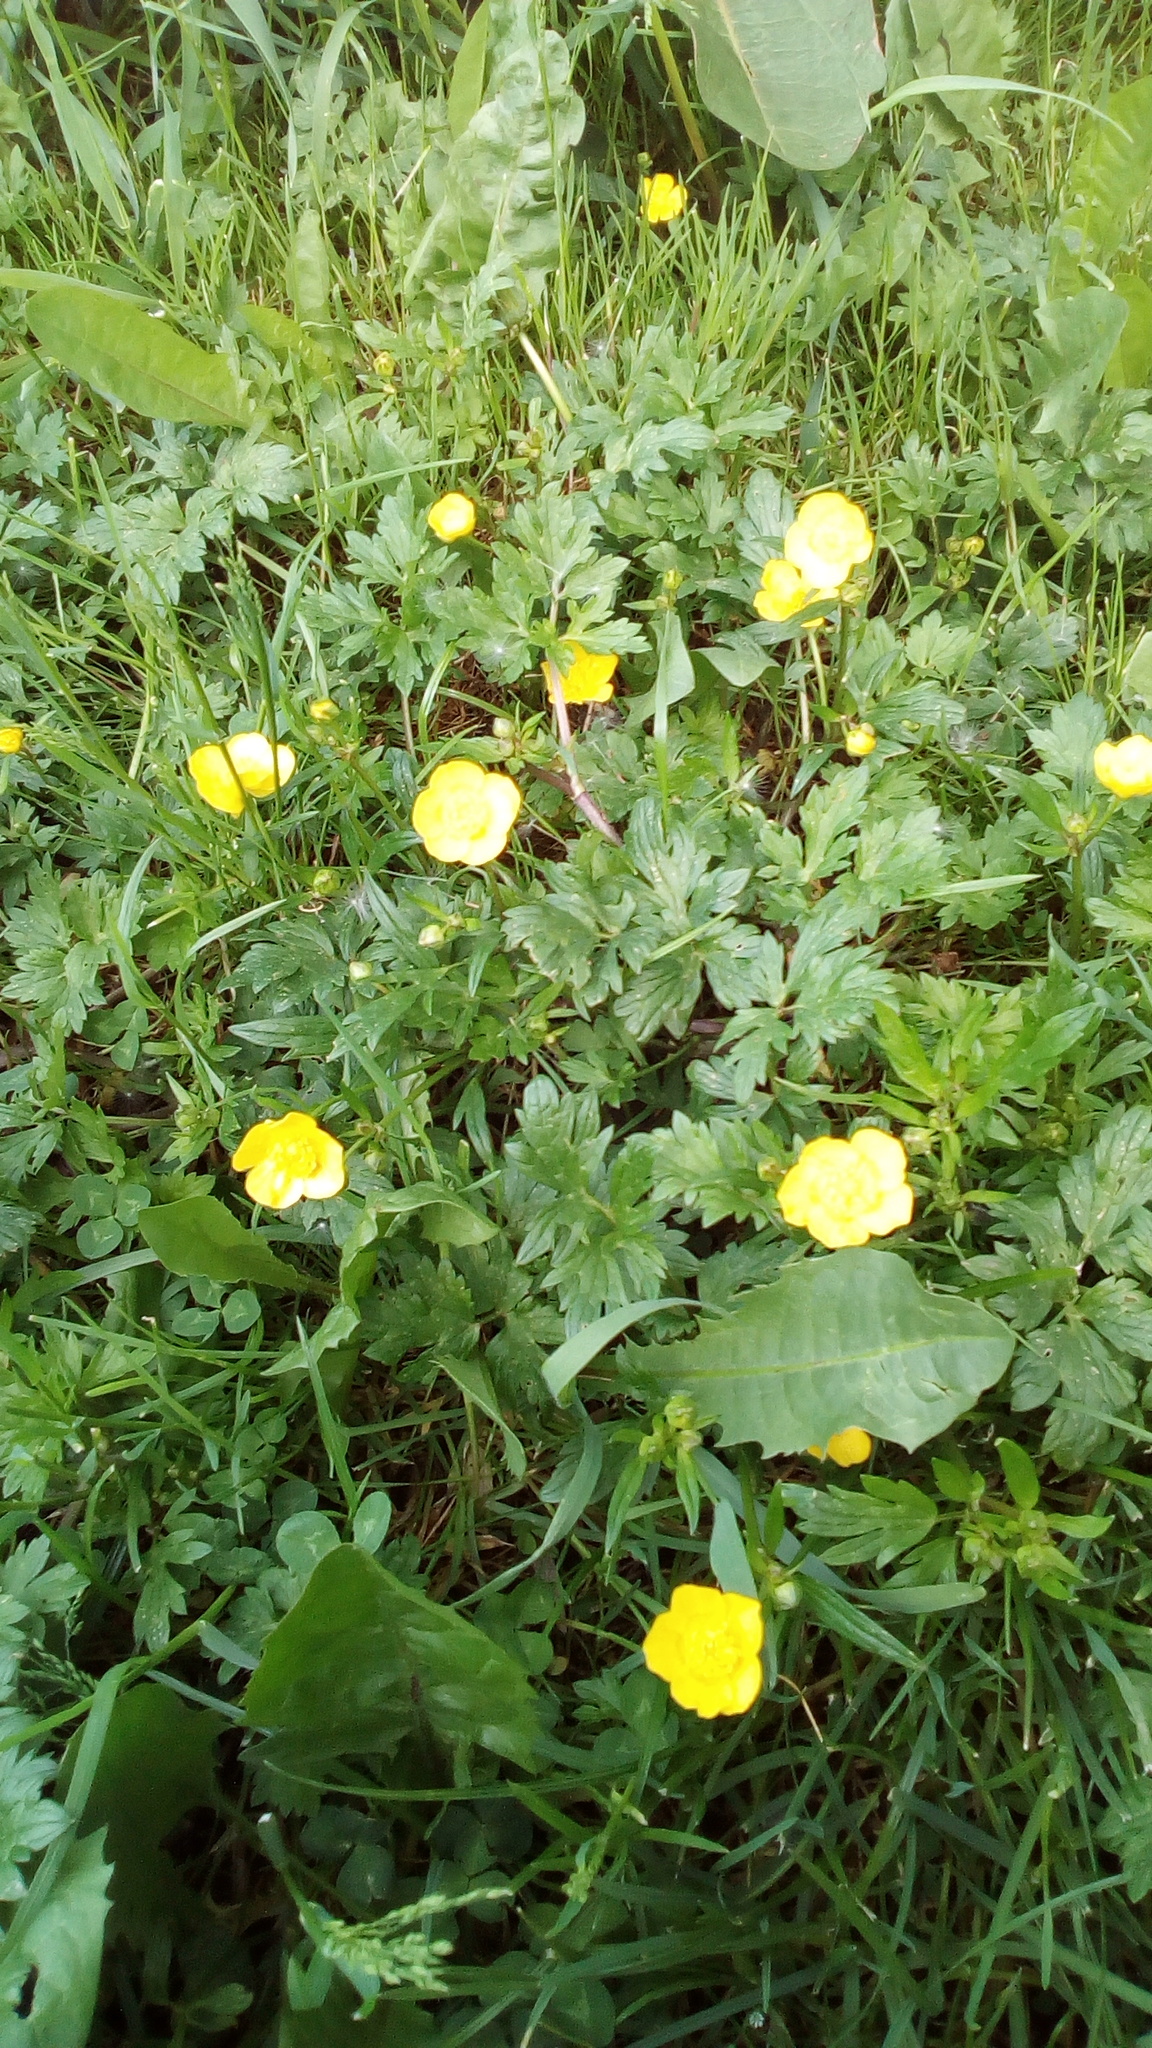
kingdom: Plantae
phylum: Tracheophyta
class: Magnoliopsida
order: Ranunculales
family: Ranunculaceae
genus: Ranunculus
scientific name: Ranunculus repens
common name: Creeping buttercup
